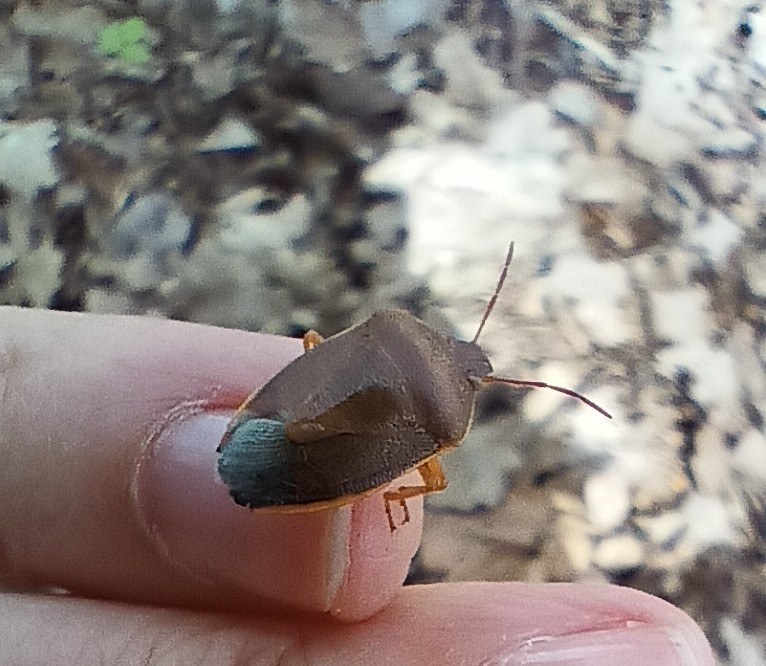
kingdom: Animalia
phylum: Arthropoda
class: Insecta
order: Hemiptera
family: Pentatomidae
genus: Piezodorus
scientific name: Piezodorus lituratus
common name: Stink bug
